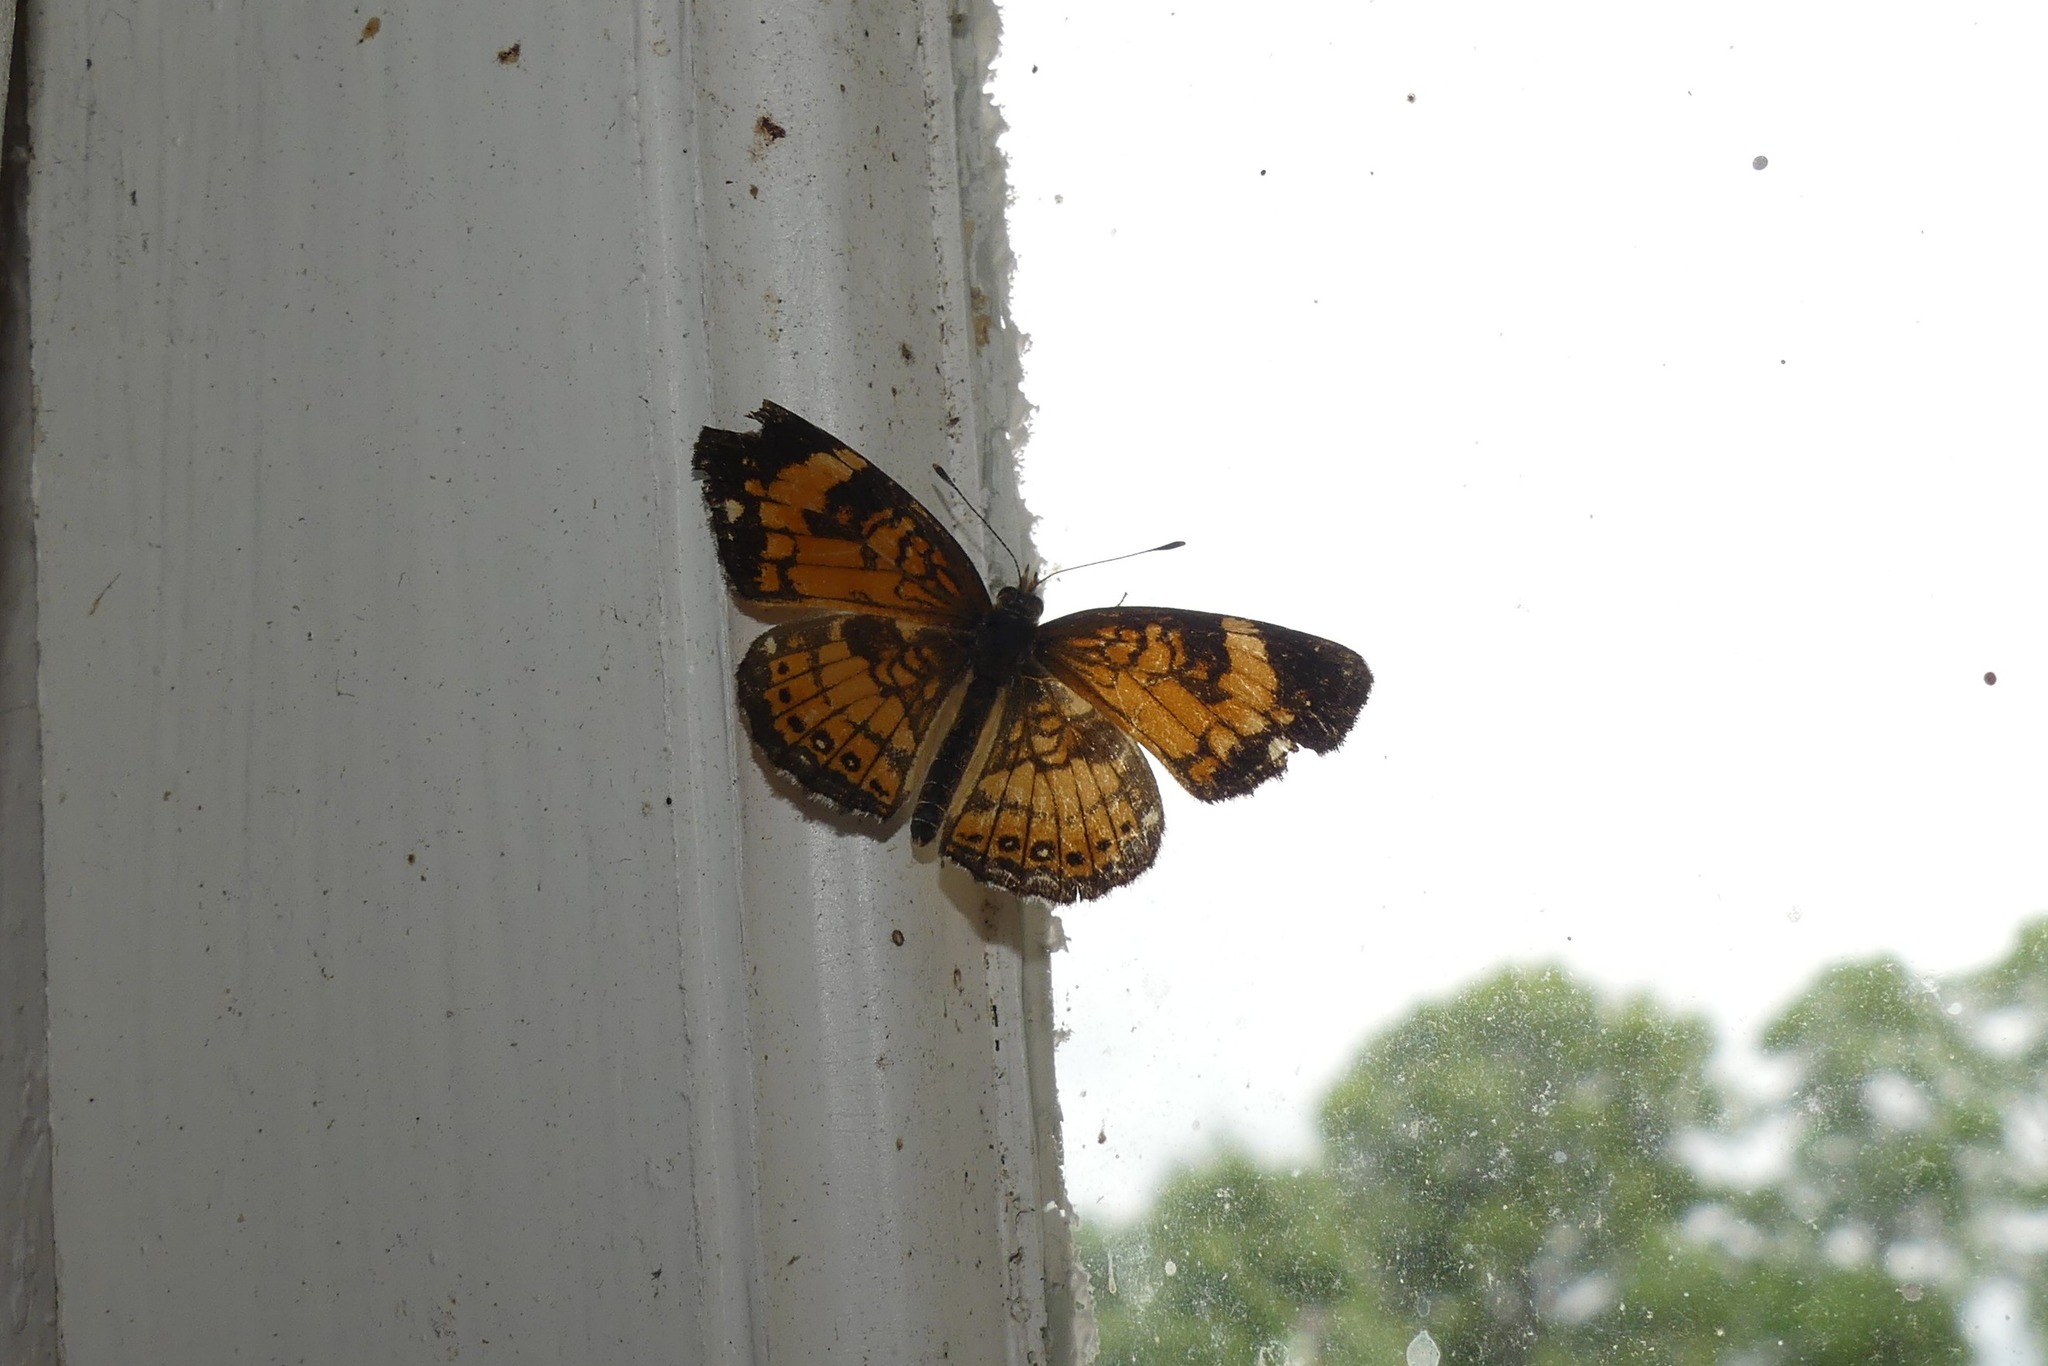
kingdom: Animalia
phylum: Arthropoda
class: Insecta
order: Lepidoptera
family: Nymphalidae
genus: Chlosyne
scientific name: Chlosyne nycteis
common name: Silvery checkerspot
